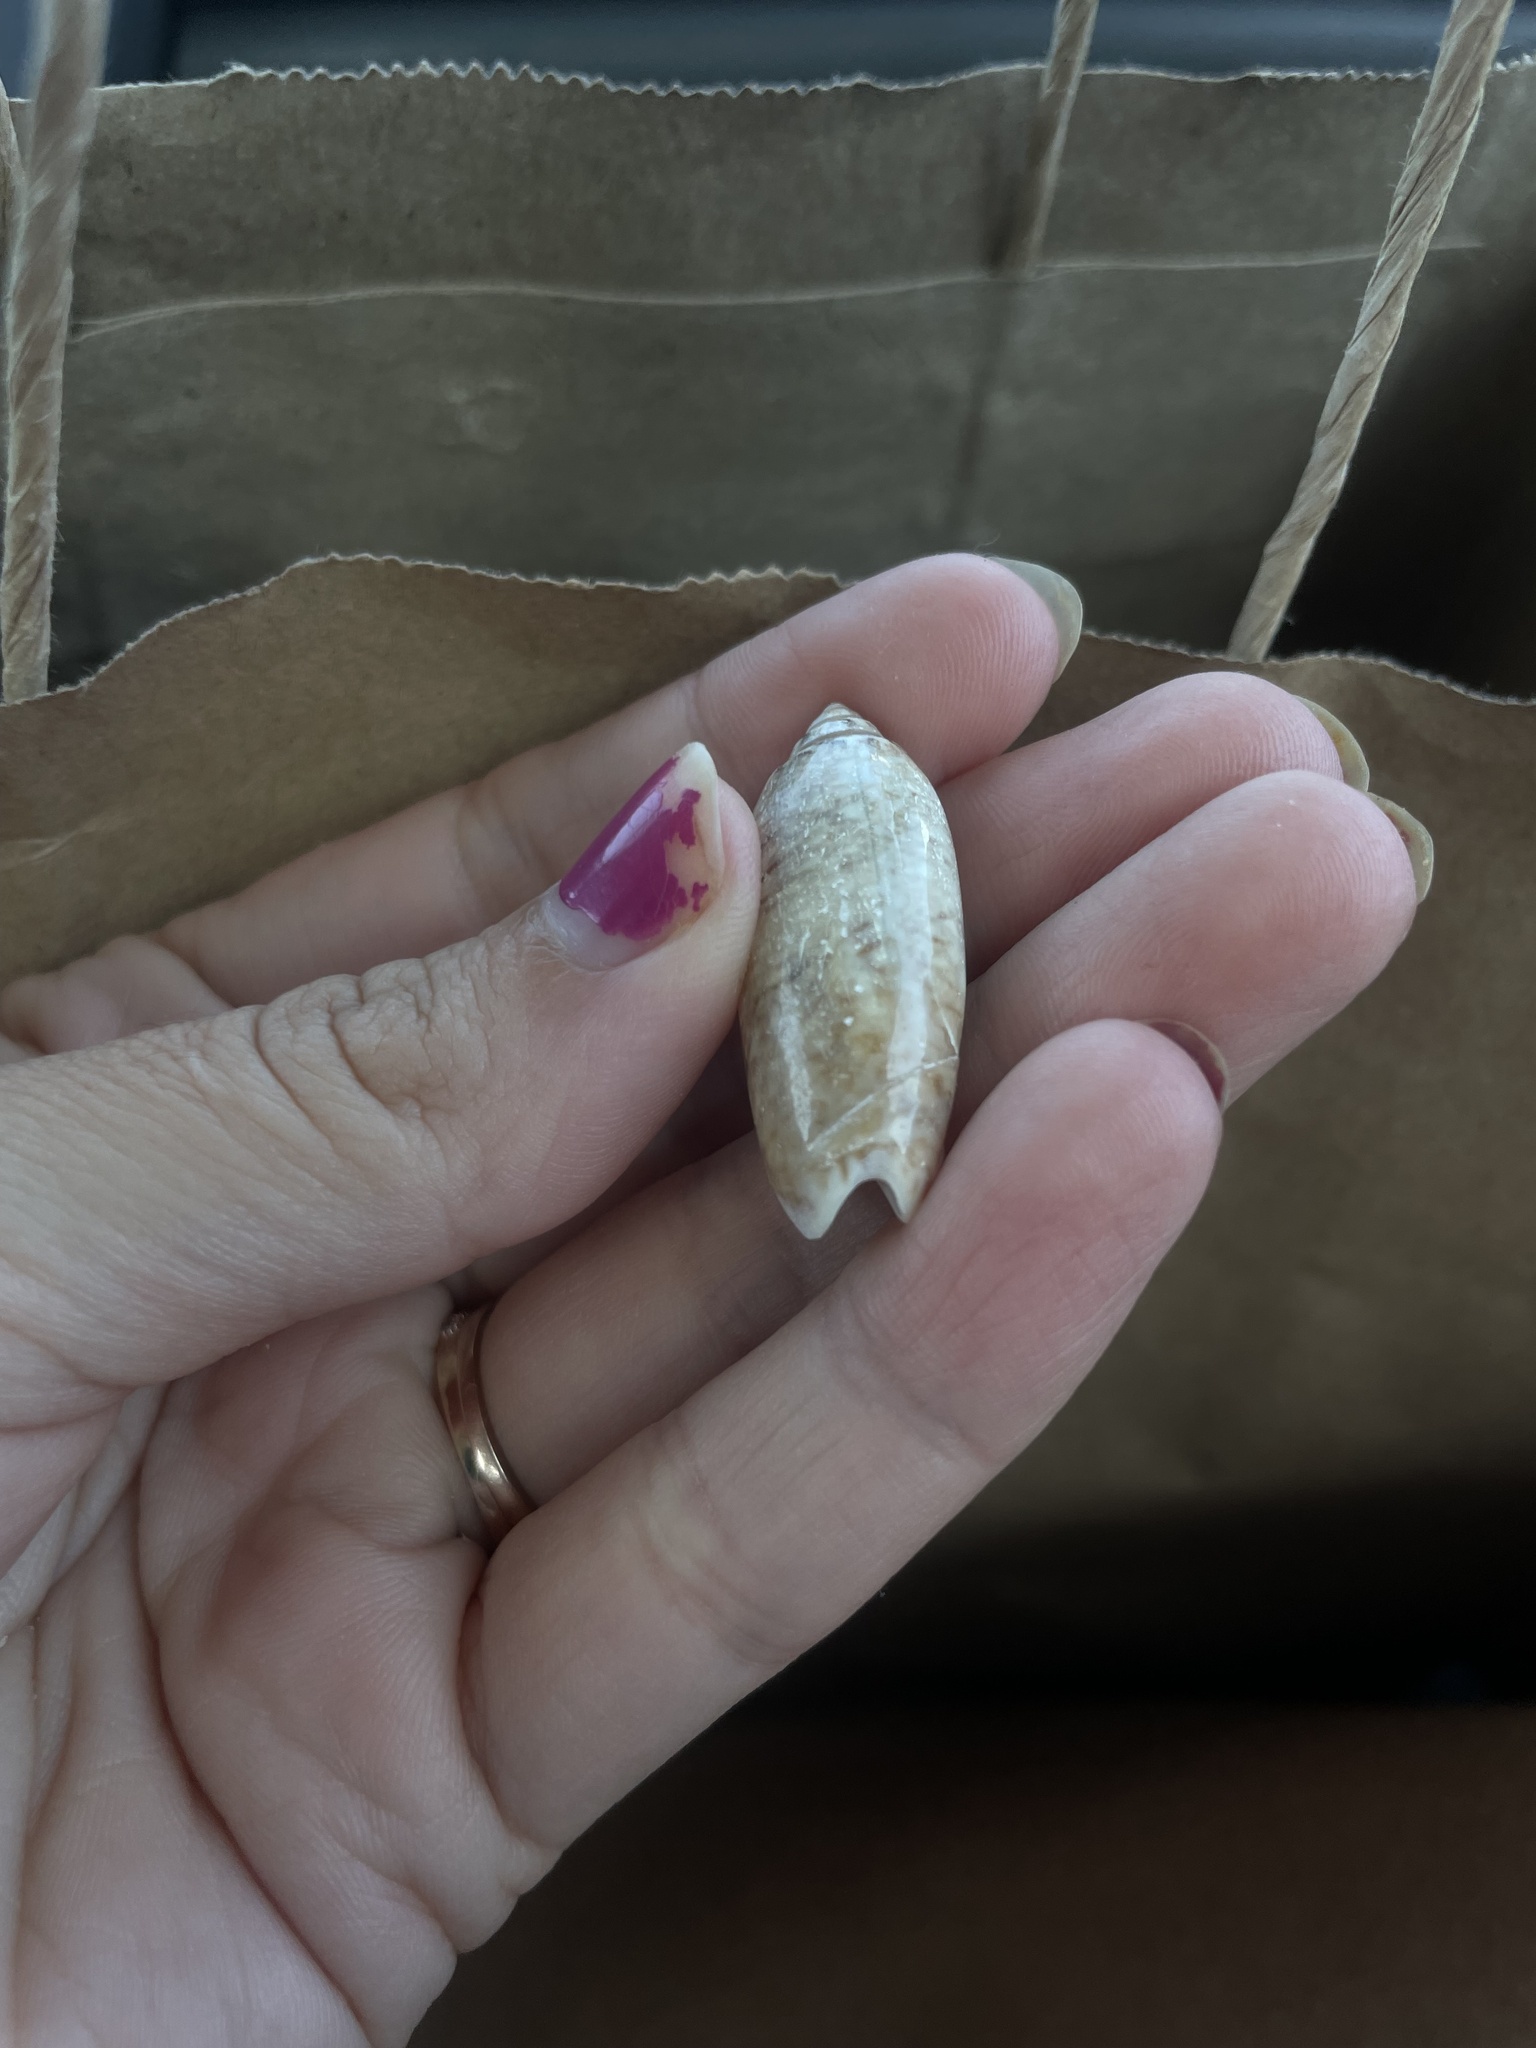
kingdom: Animalia
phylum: Mollusca
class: Gastropoda
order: Neogastropoda
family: Olividae
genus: Oliva
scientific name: Oliva sayana
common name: Lettered olive
